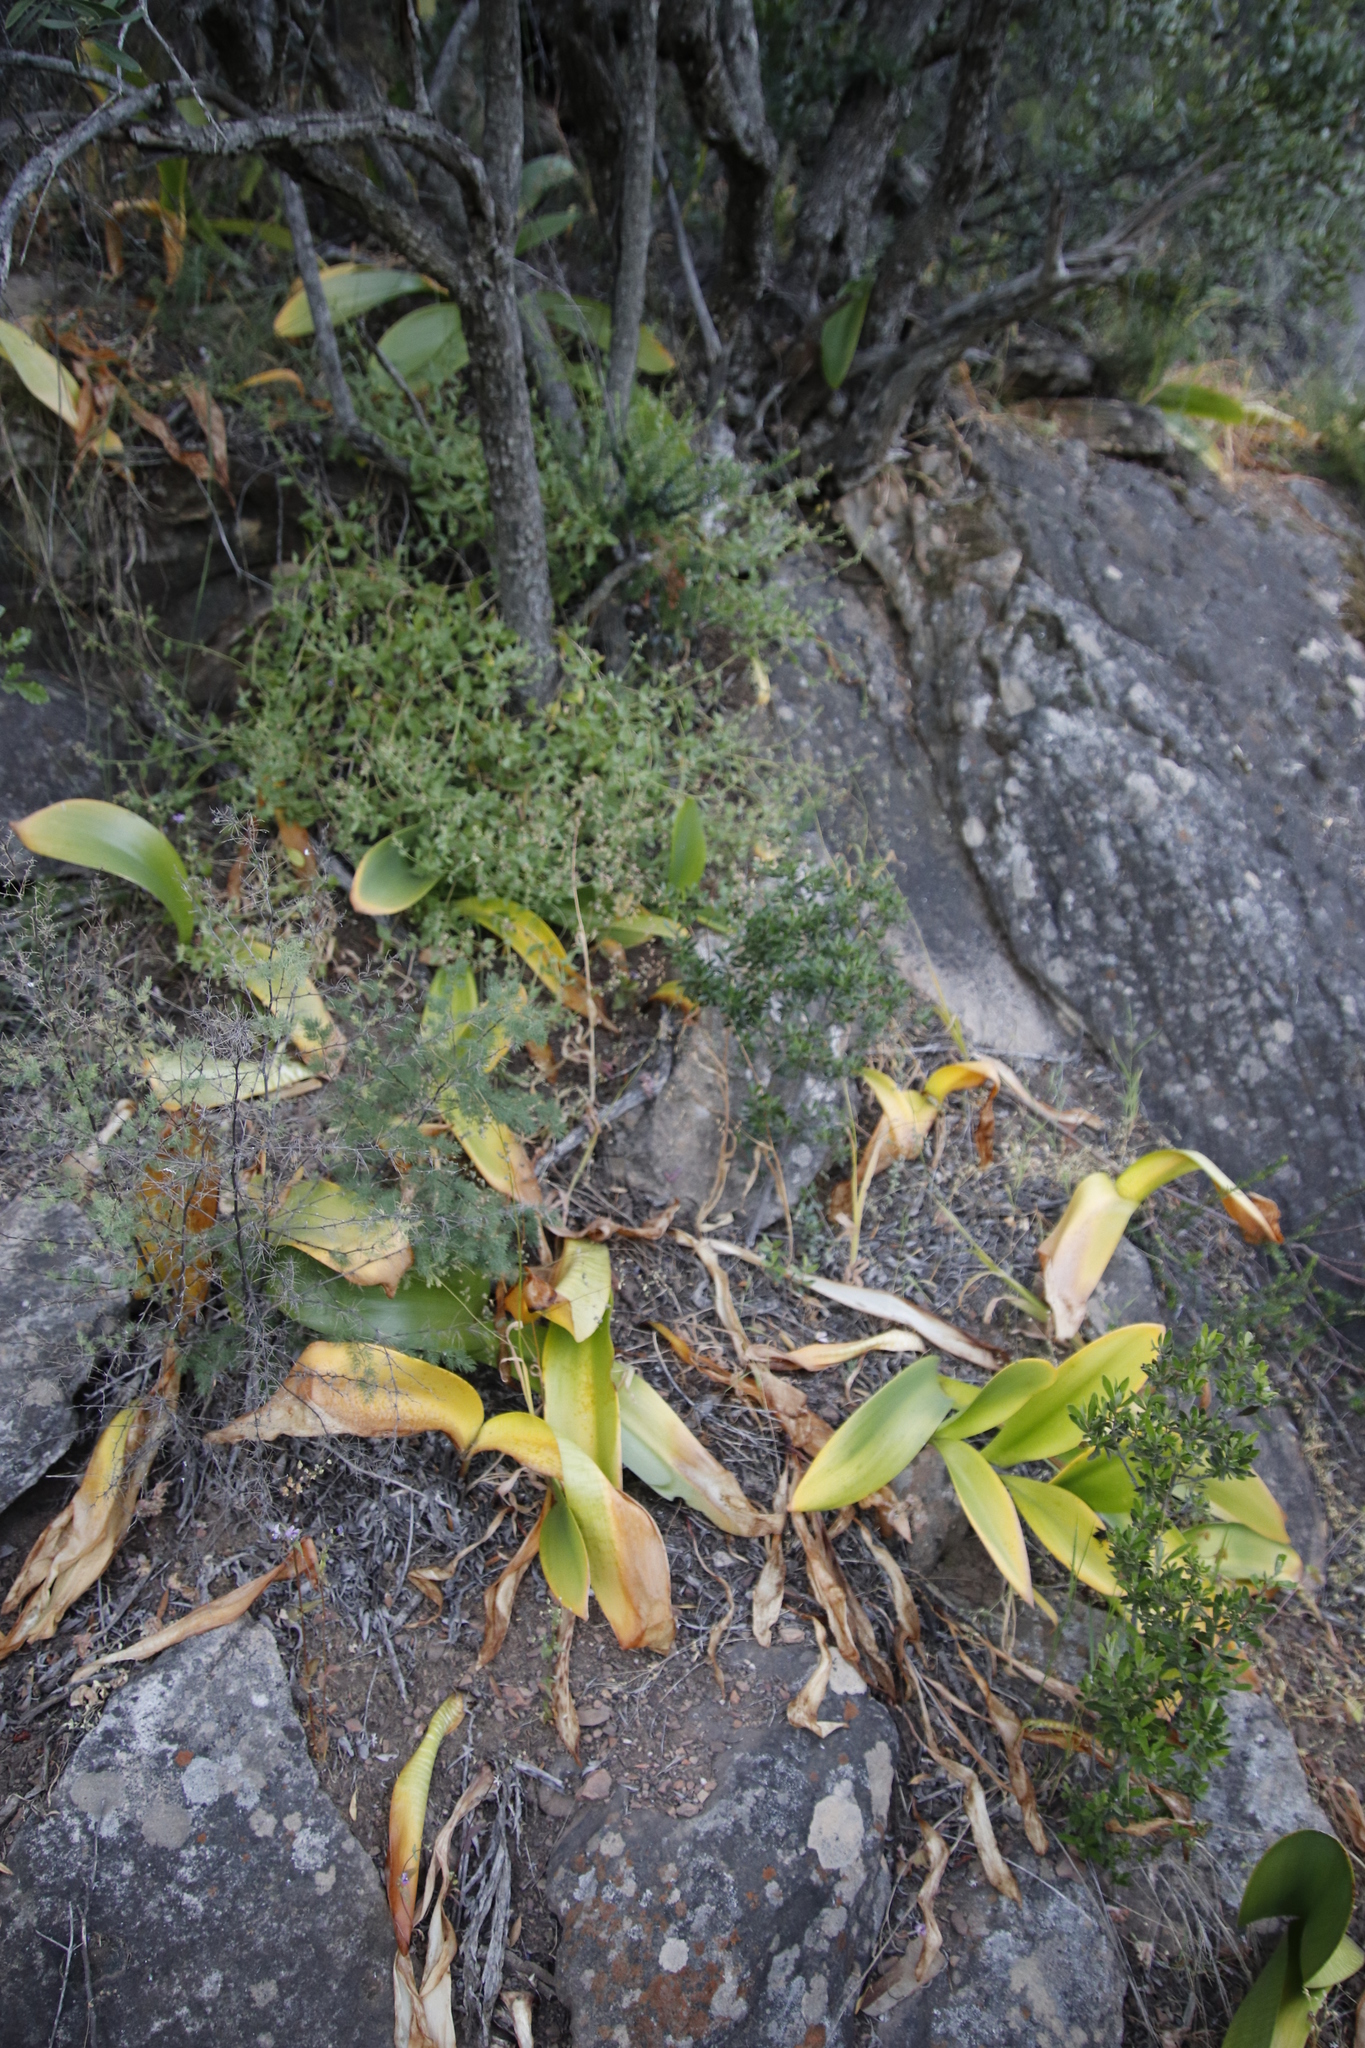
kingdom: Plantae
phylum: Tracheophyta
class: Liliopsida
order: Asparagales
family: Amaryllidaceae
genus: Haemanthus
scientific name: Haemanthus coccineus
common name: Cape-tulip
